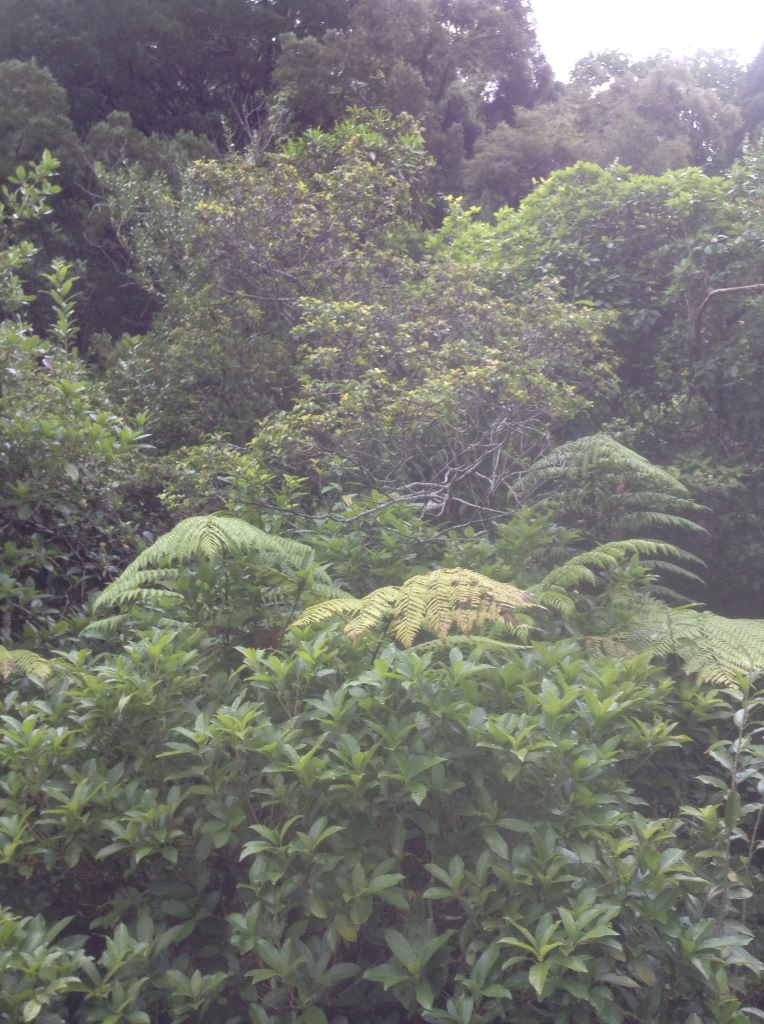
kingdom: Plantae
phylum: Tracheophyta
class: Magnoliopsida
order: Ericales
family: Primulaceae
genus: Myrsine
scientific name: Myrsine australis
